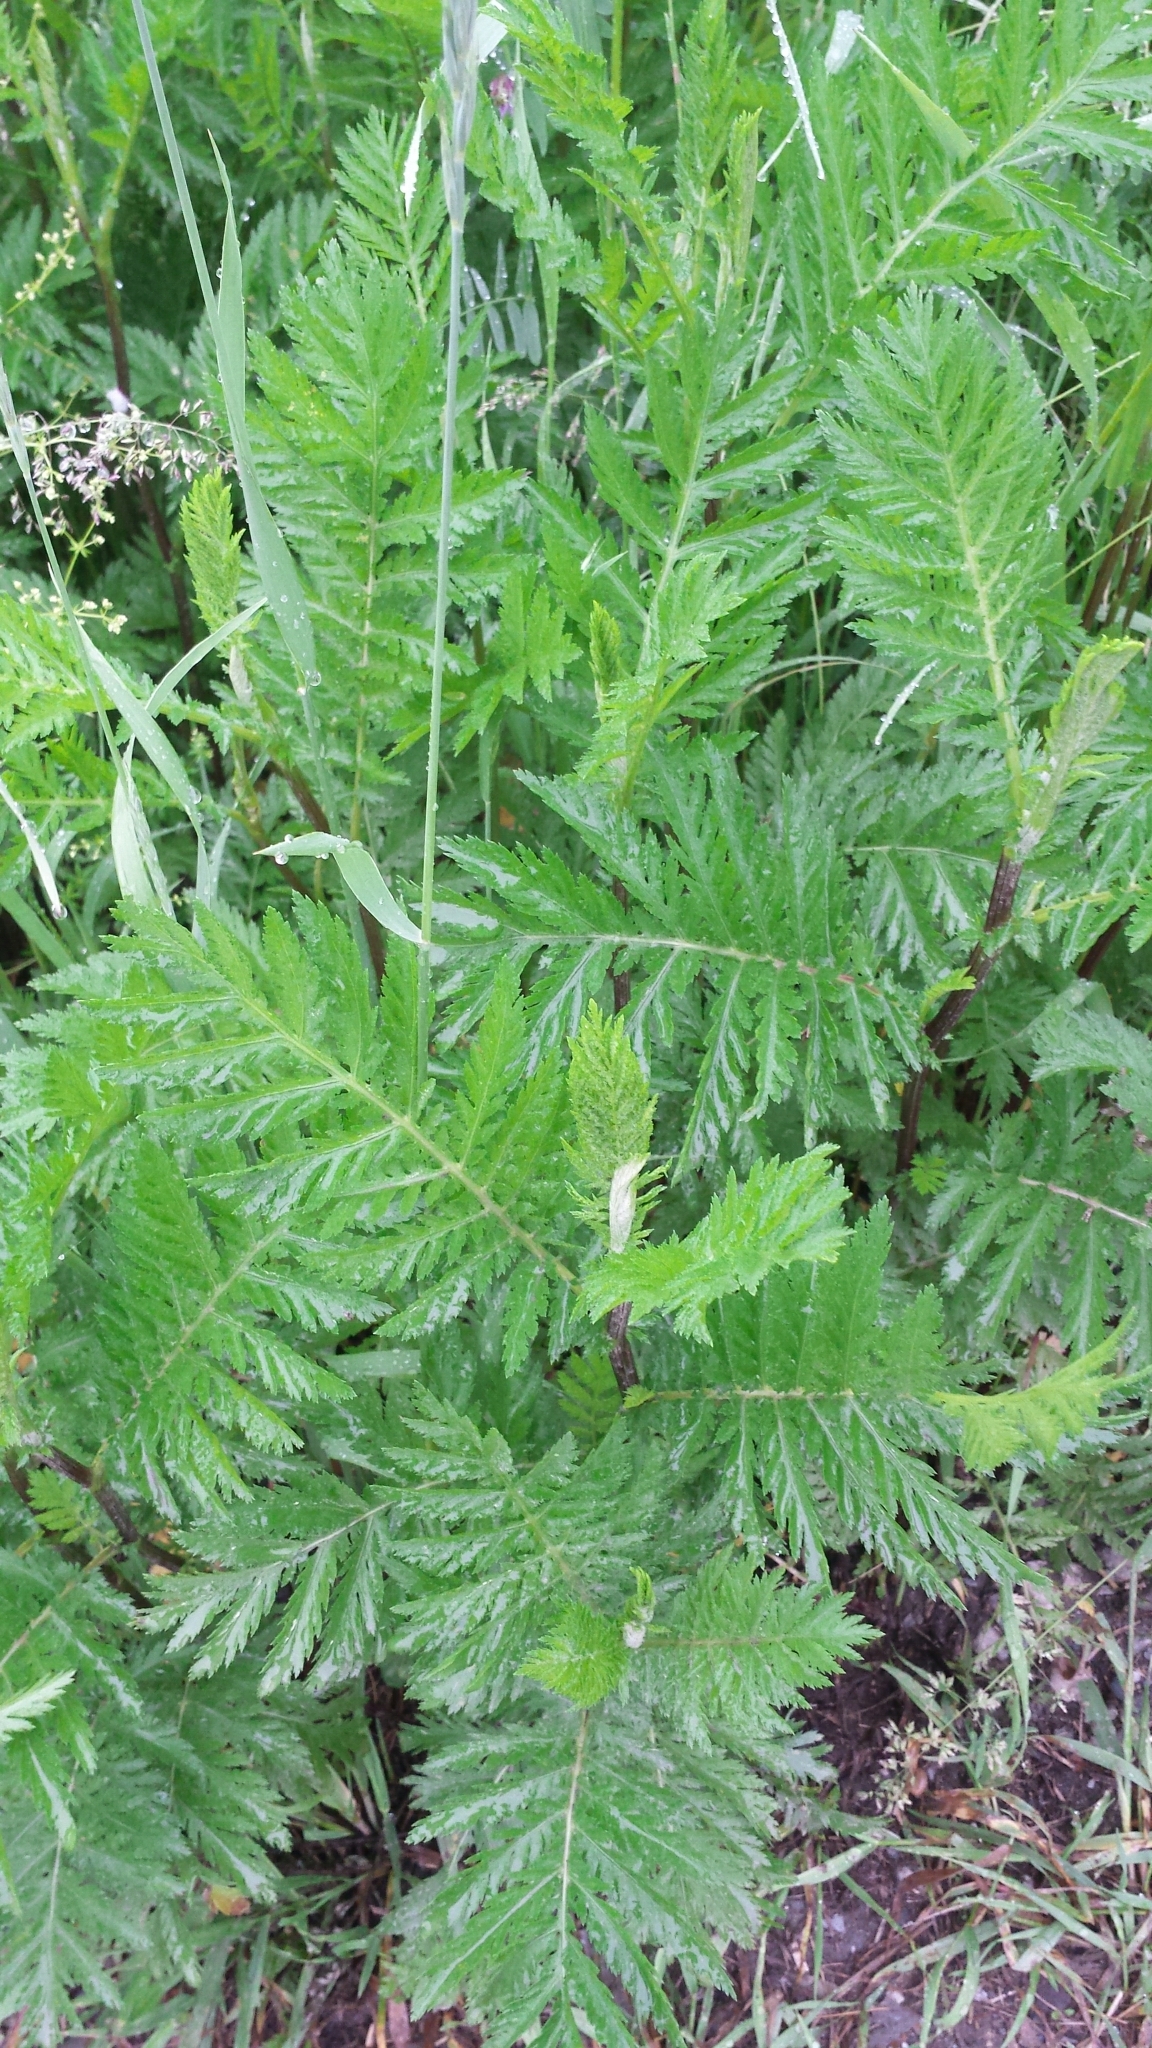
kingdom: Plantae
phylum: Tracheophyta
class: Magnoliopsida
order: Asterales
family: Asteraceae
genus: Tanacetum
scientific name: Tanacetum vulgare
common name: Common tansy
